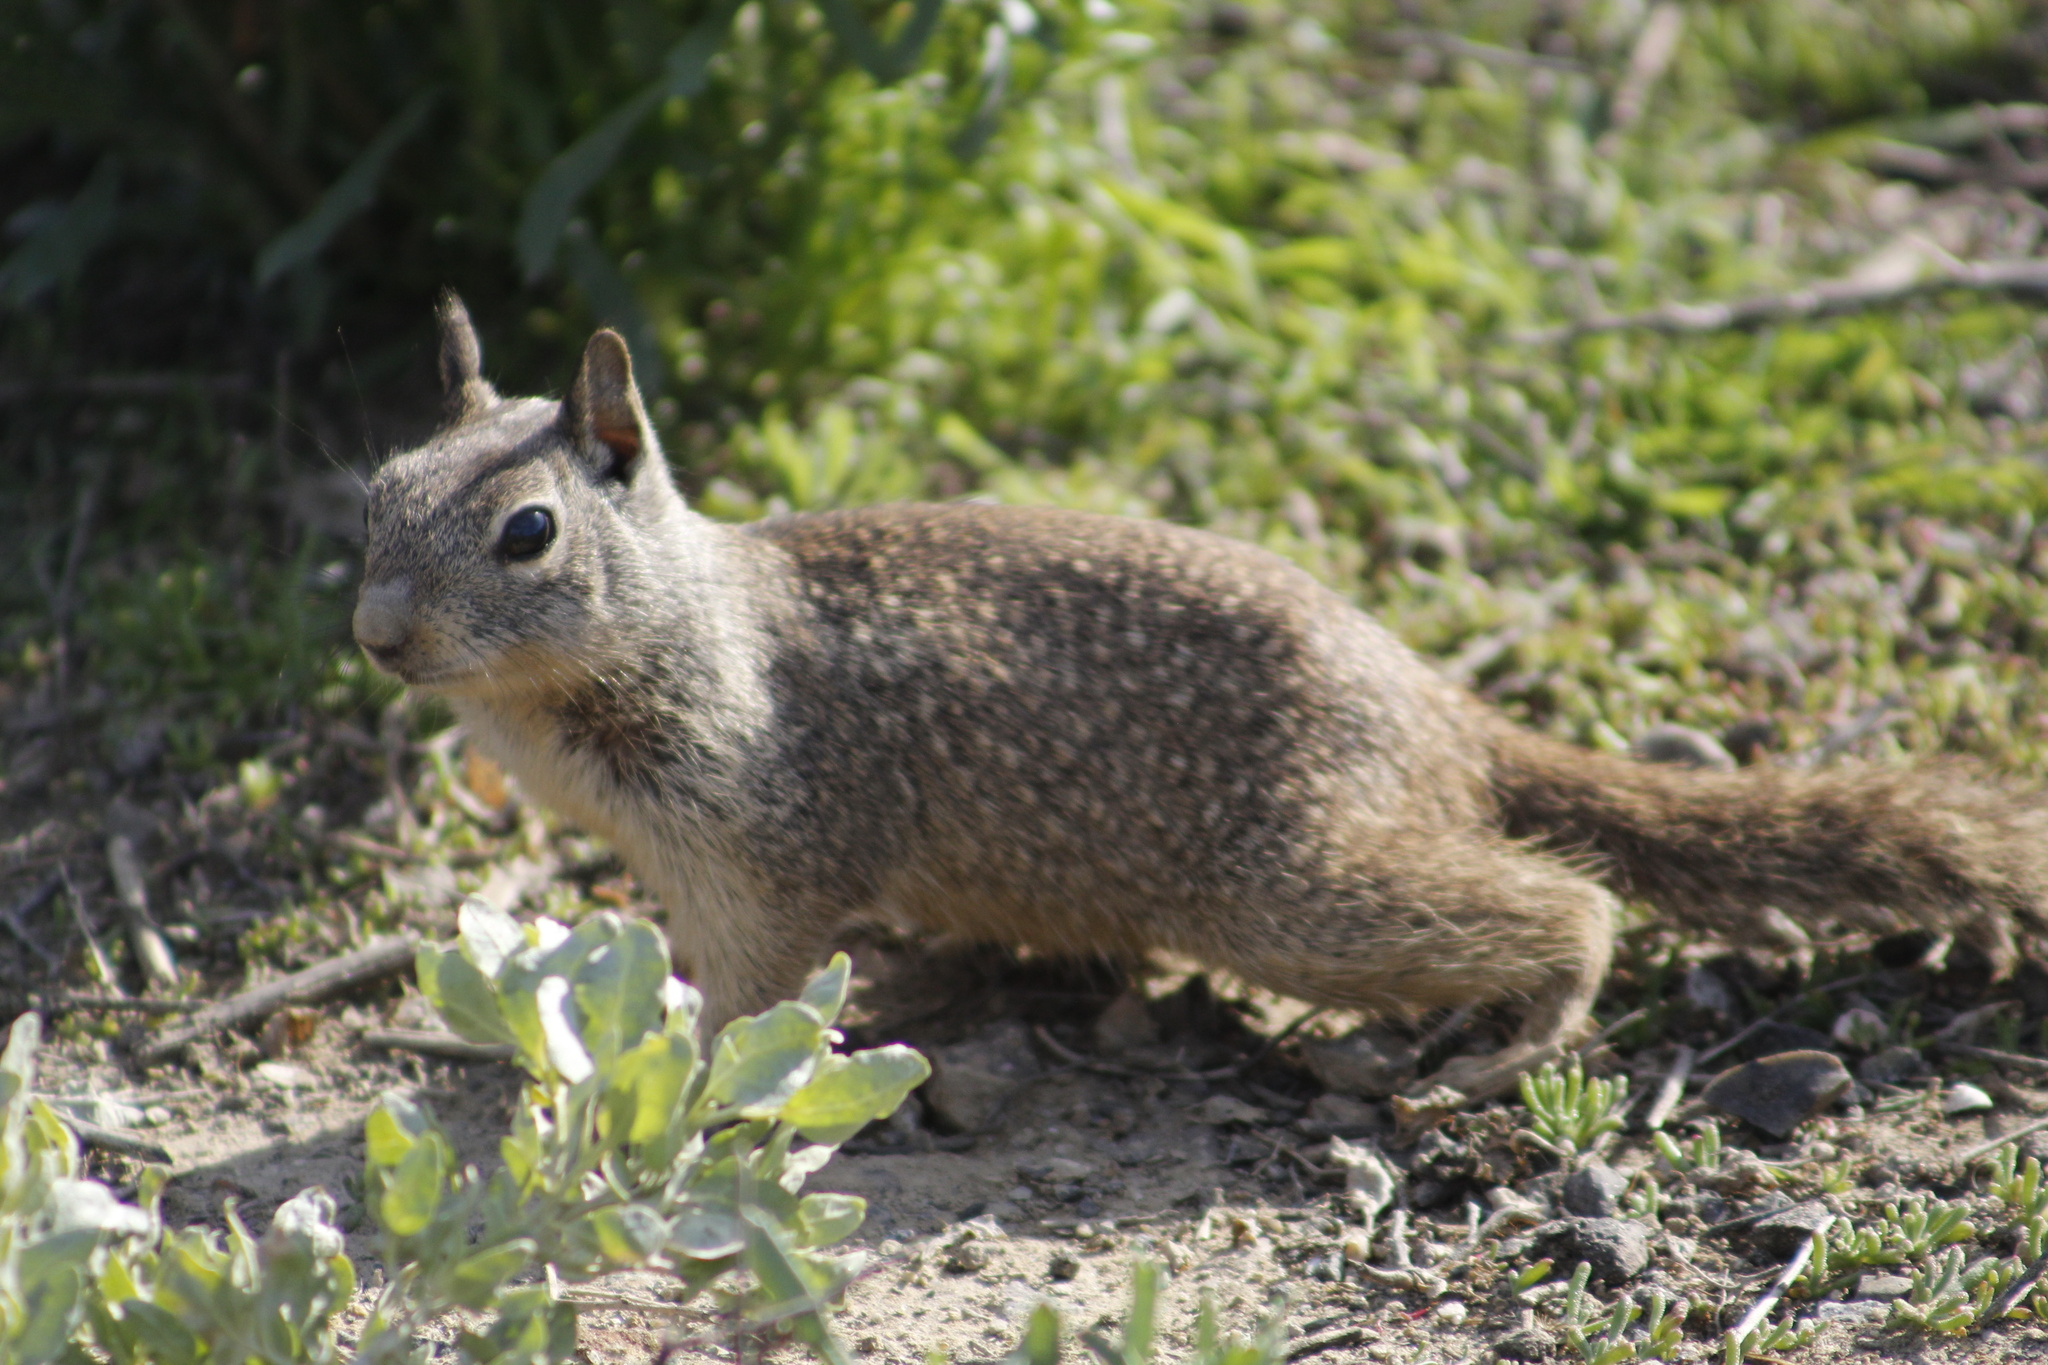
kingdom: Animalia
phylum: Chordata
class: Mammalia
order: Rodentia
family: Sciuridae
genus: Otospermophilus
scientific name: Otospermophilus beecheyi
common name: California ground squirrel
